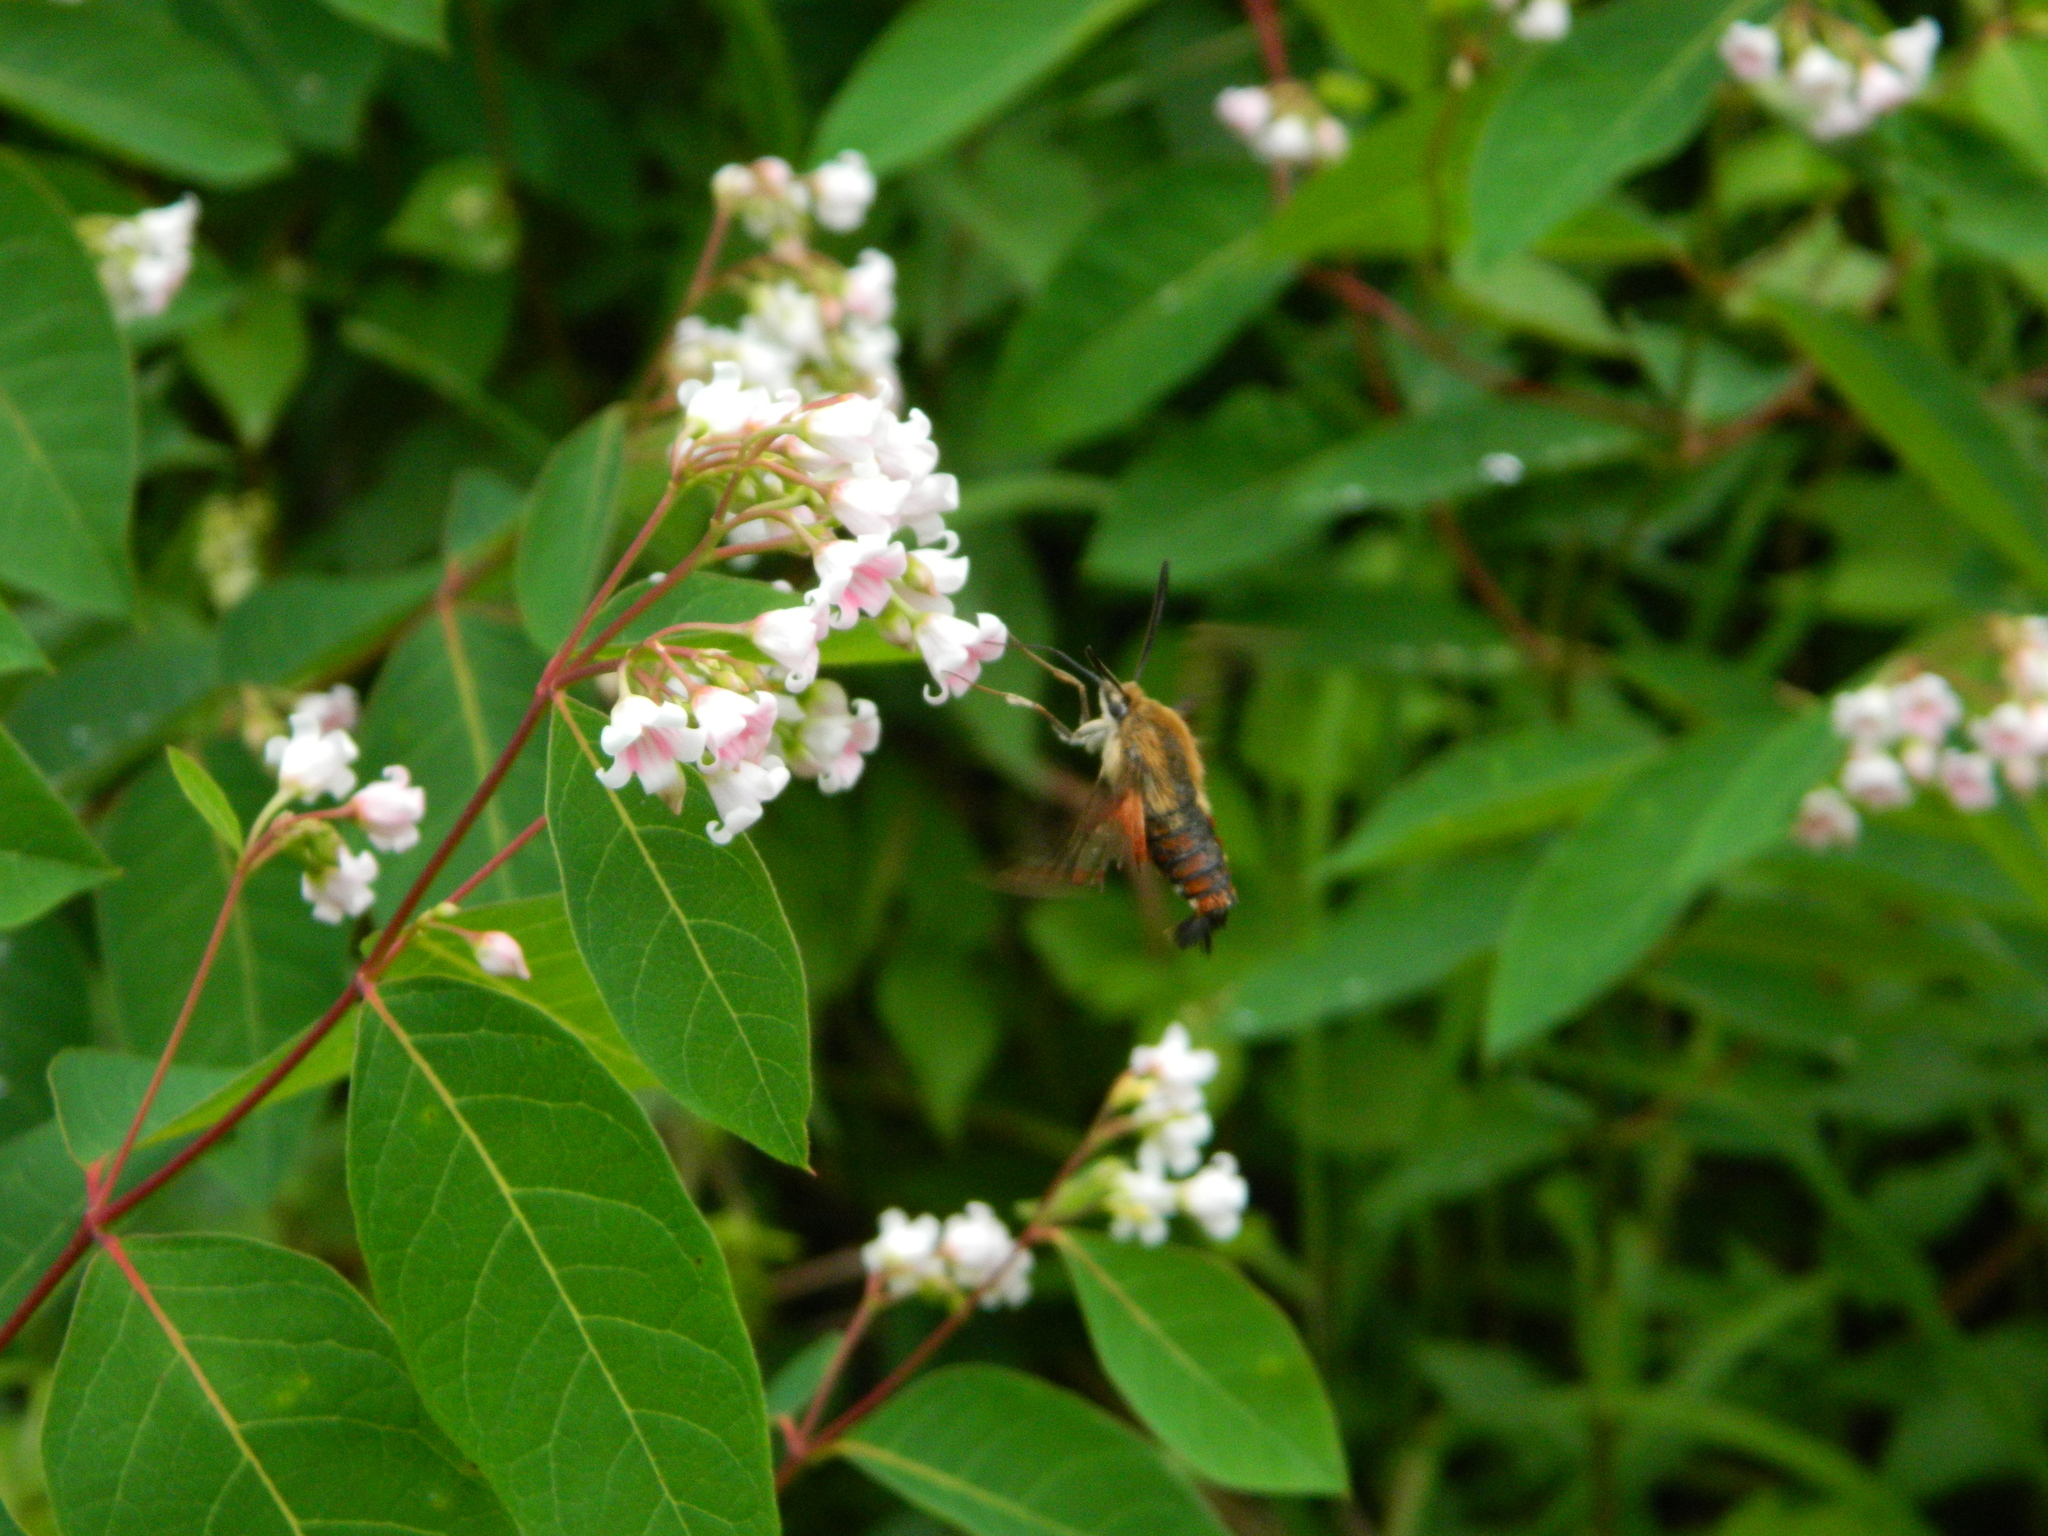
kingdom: Animalia
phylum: Arthropoda
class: Insecta
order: Lepidoptera
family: Sphingidae
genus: Hemaris
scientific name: Hemaris thysbe
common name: Common clear-wing
